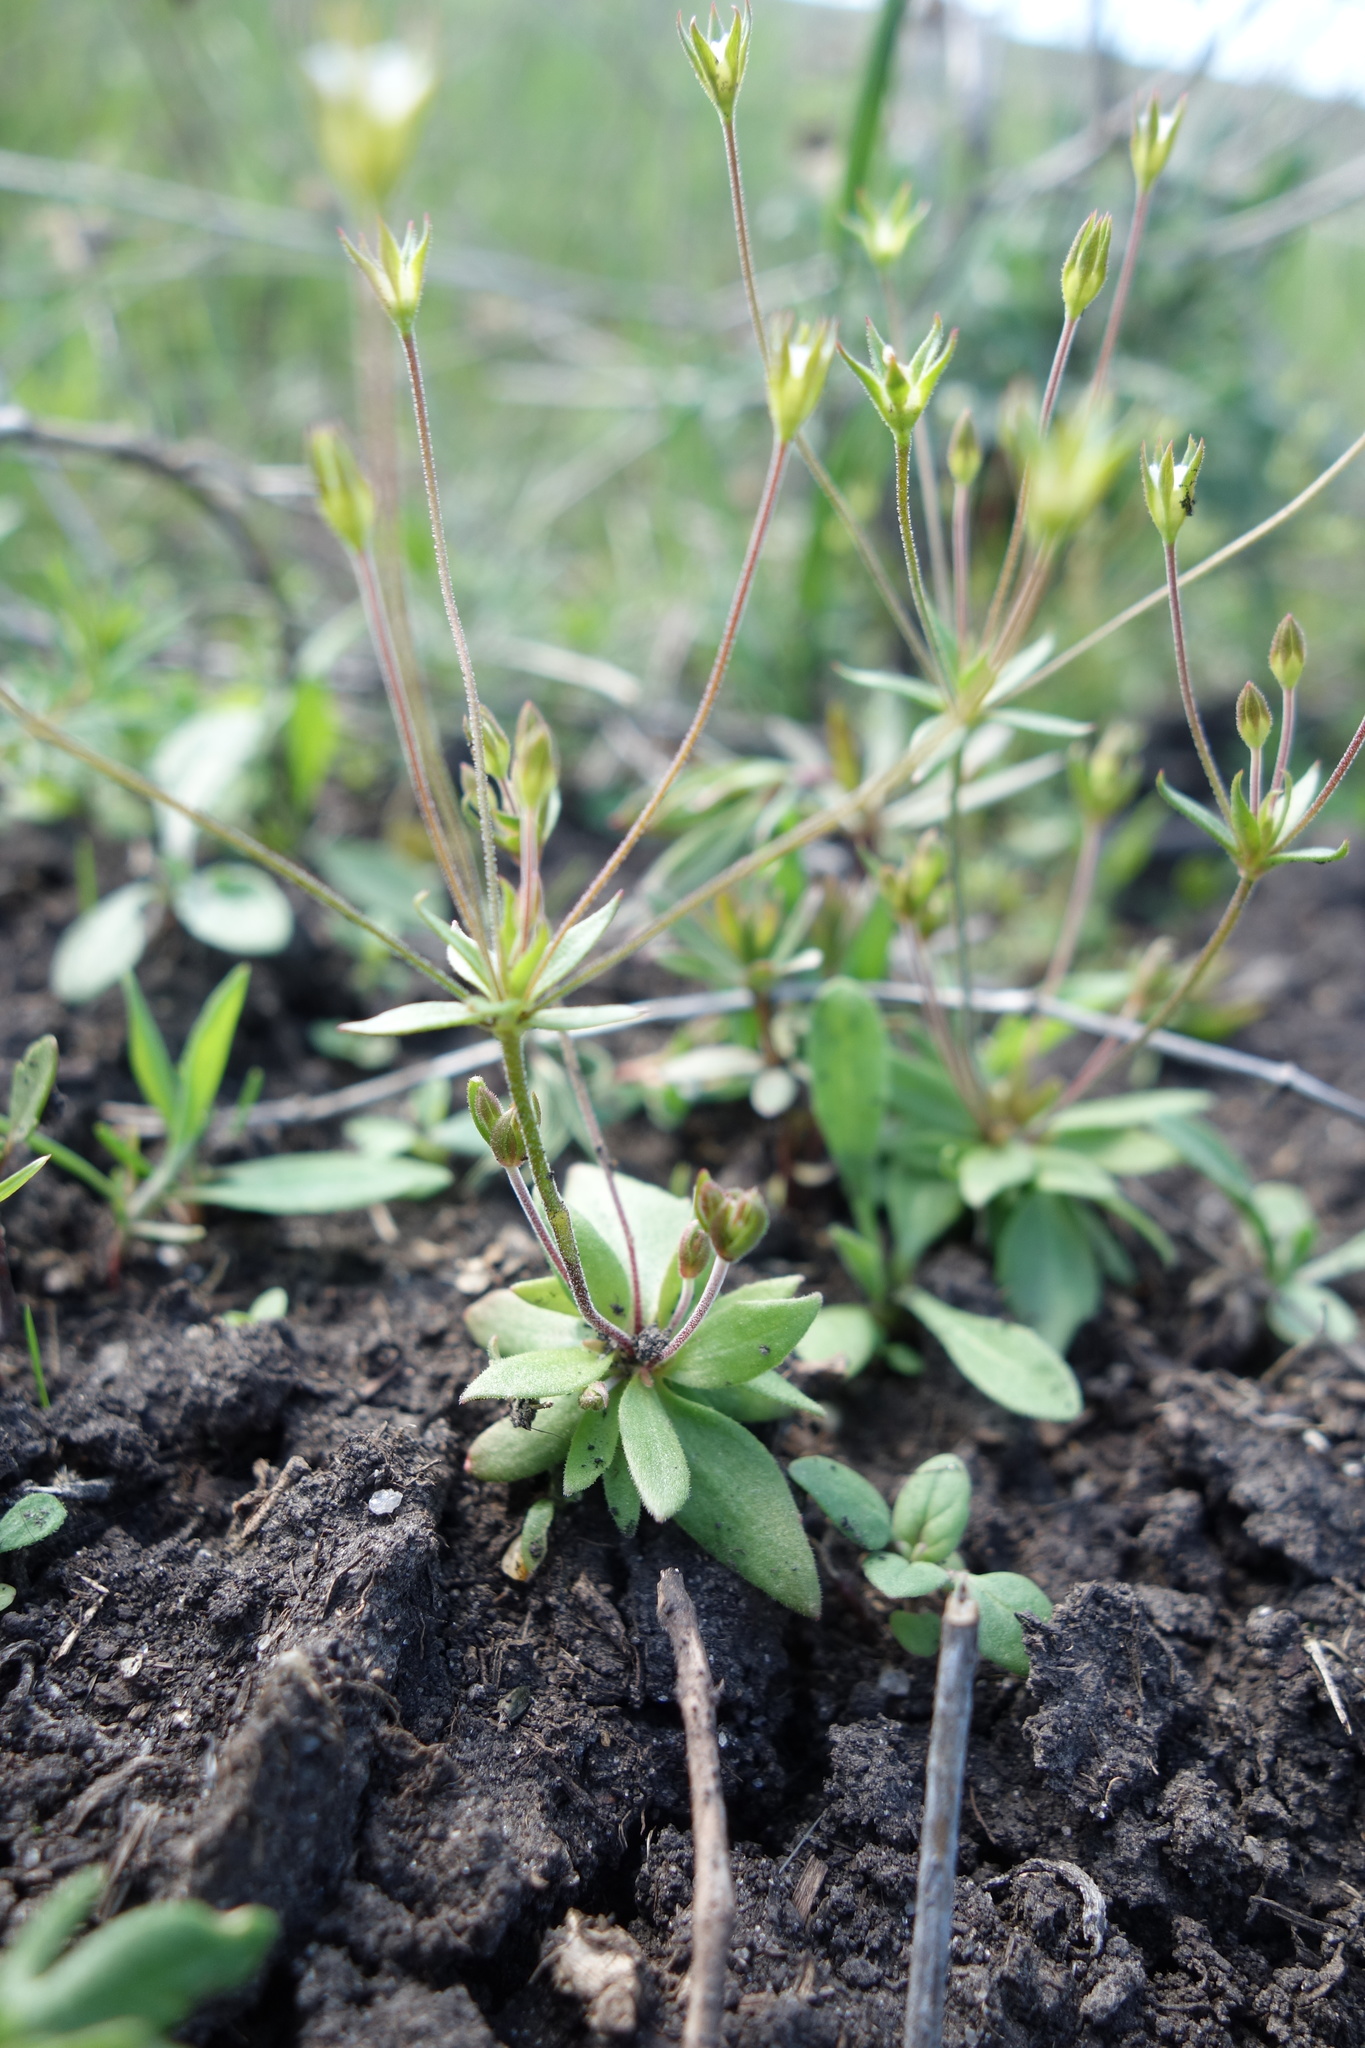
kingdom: Plantae
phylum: Tracheophyta
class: Magnoliopsida
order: Ericales
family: Primulaceae
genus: Androsace
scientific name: Androsace elongata
